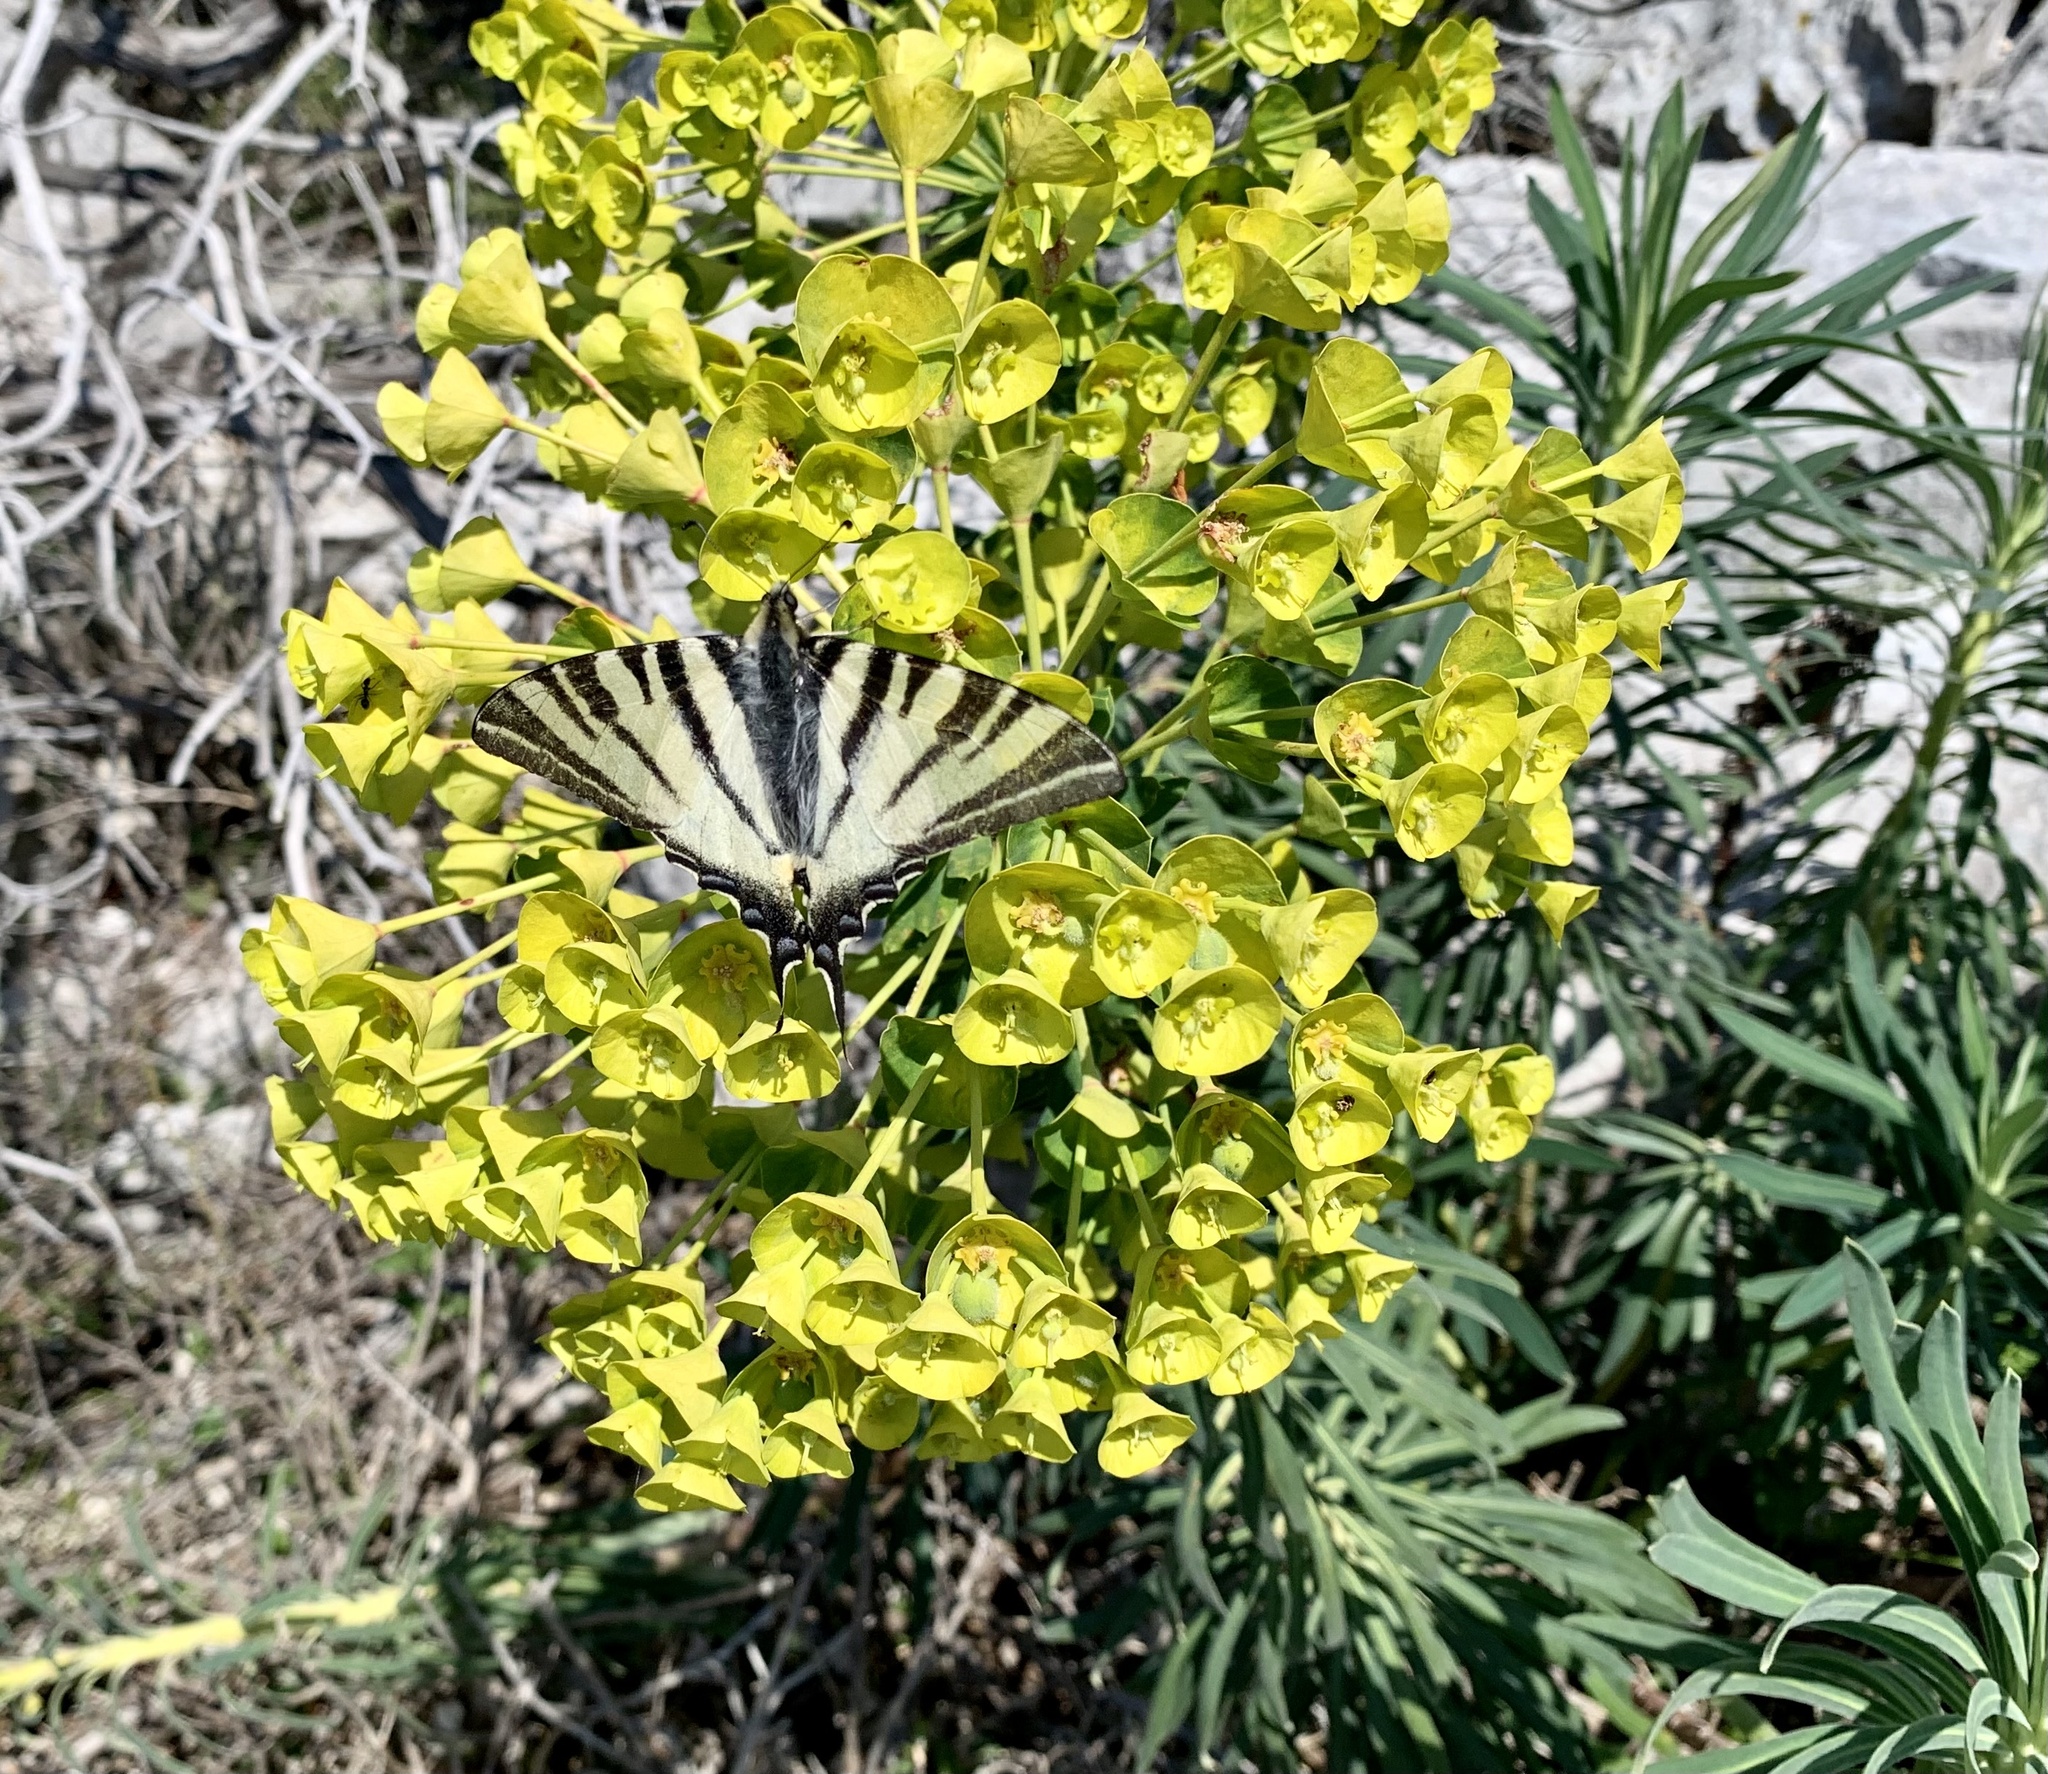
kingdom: Animalia
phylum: Arthropoda
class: Insecta
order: Lepidoptera
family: Papilionidae
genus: Iphiclides
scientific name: Iphiclides podalirius
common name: Scarce swallowtail
